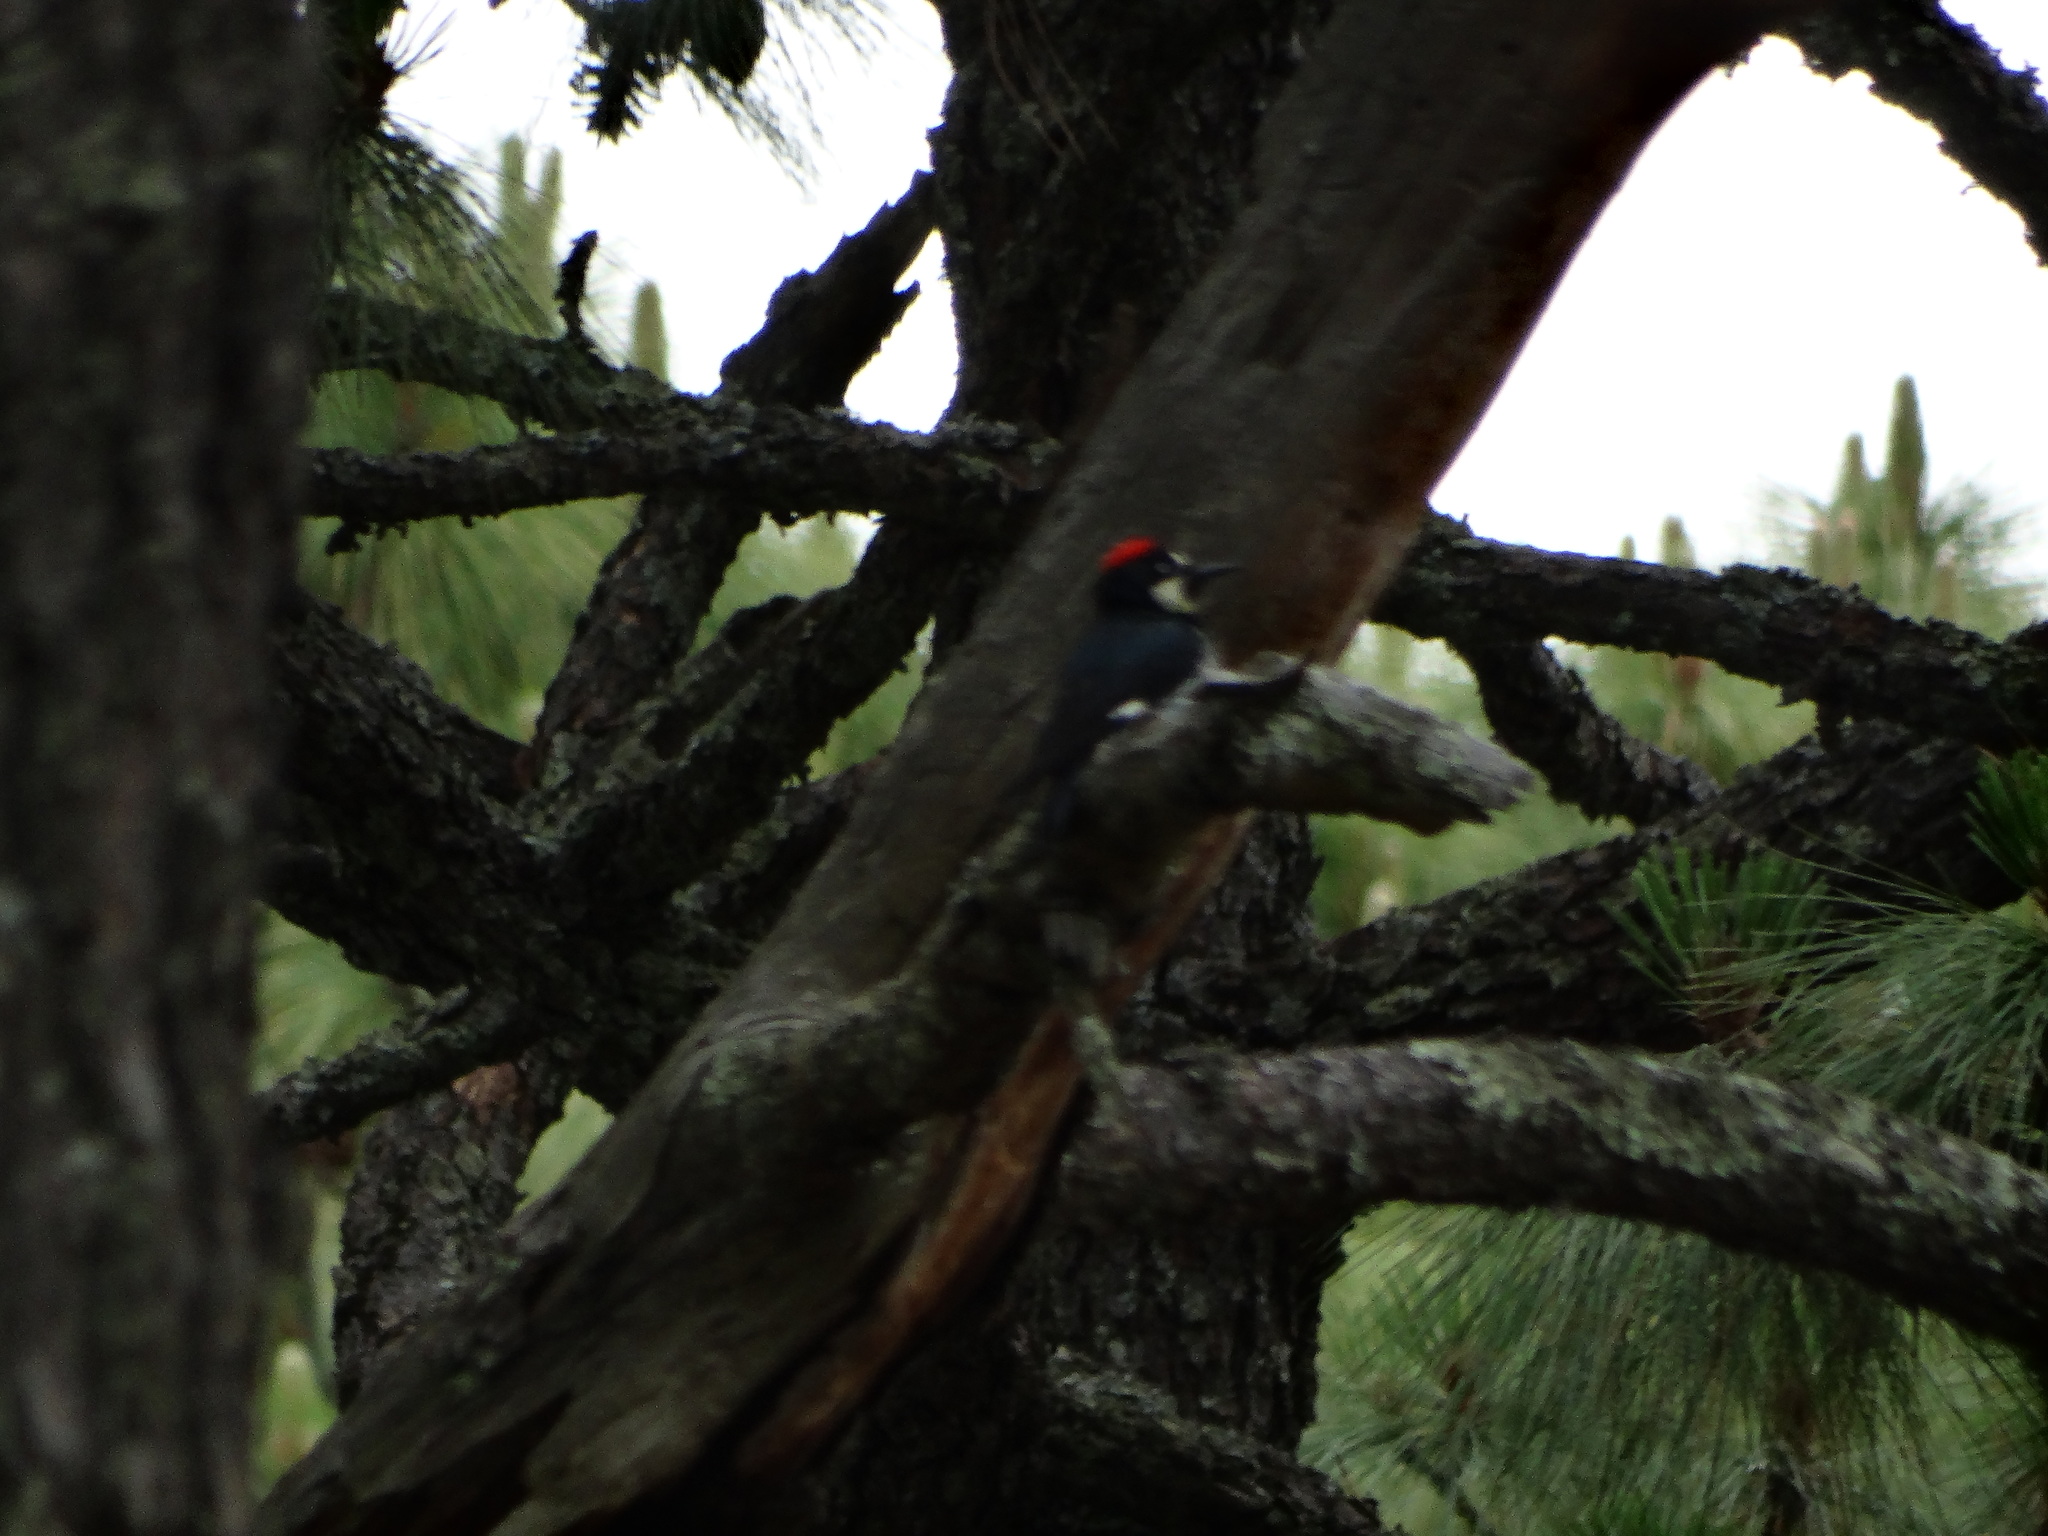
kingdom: Animalia
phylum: Chordata
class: Aves
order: Piciformes
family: Picidae
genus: Melanerpes
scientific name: Melanerpes formicivorus
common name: Acorn woodpecker
